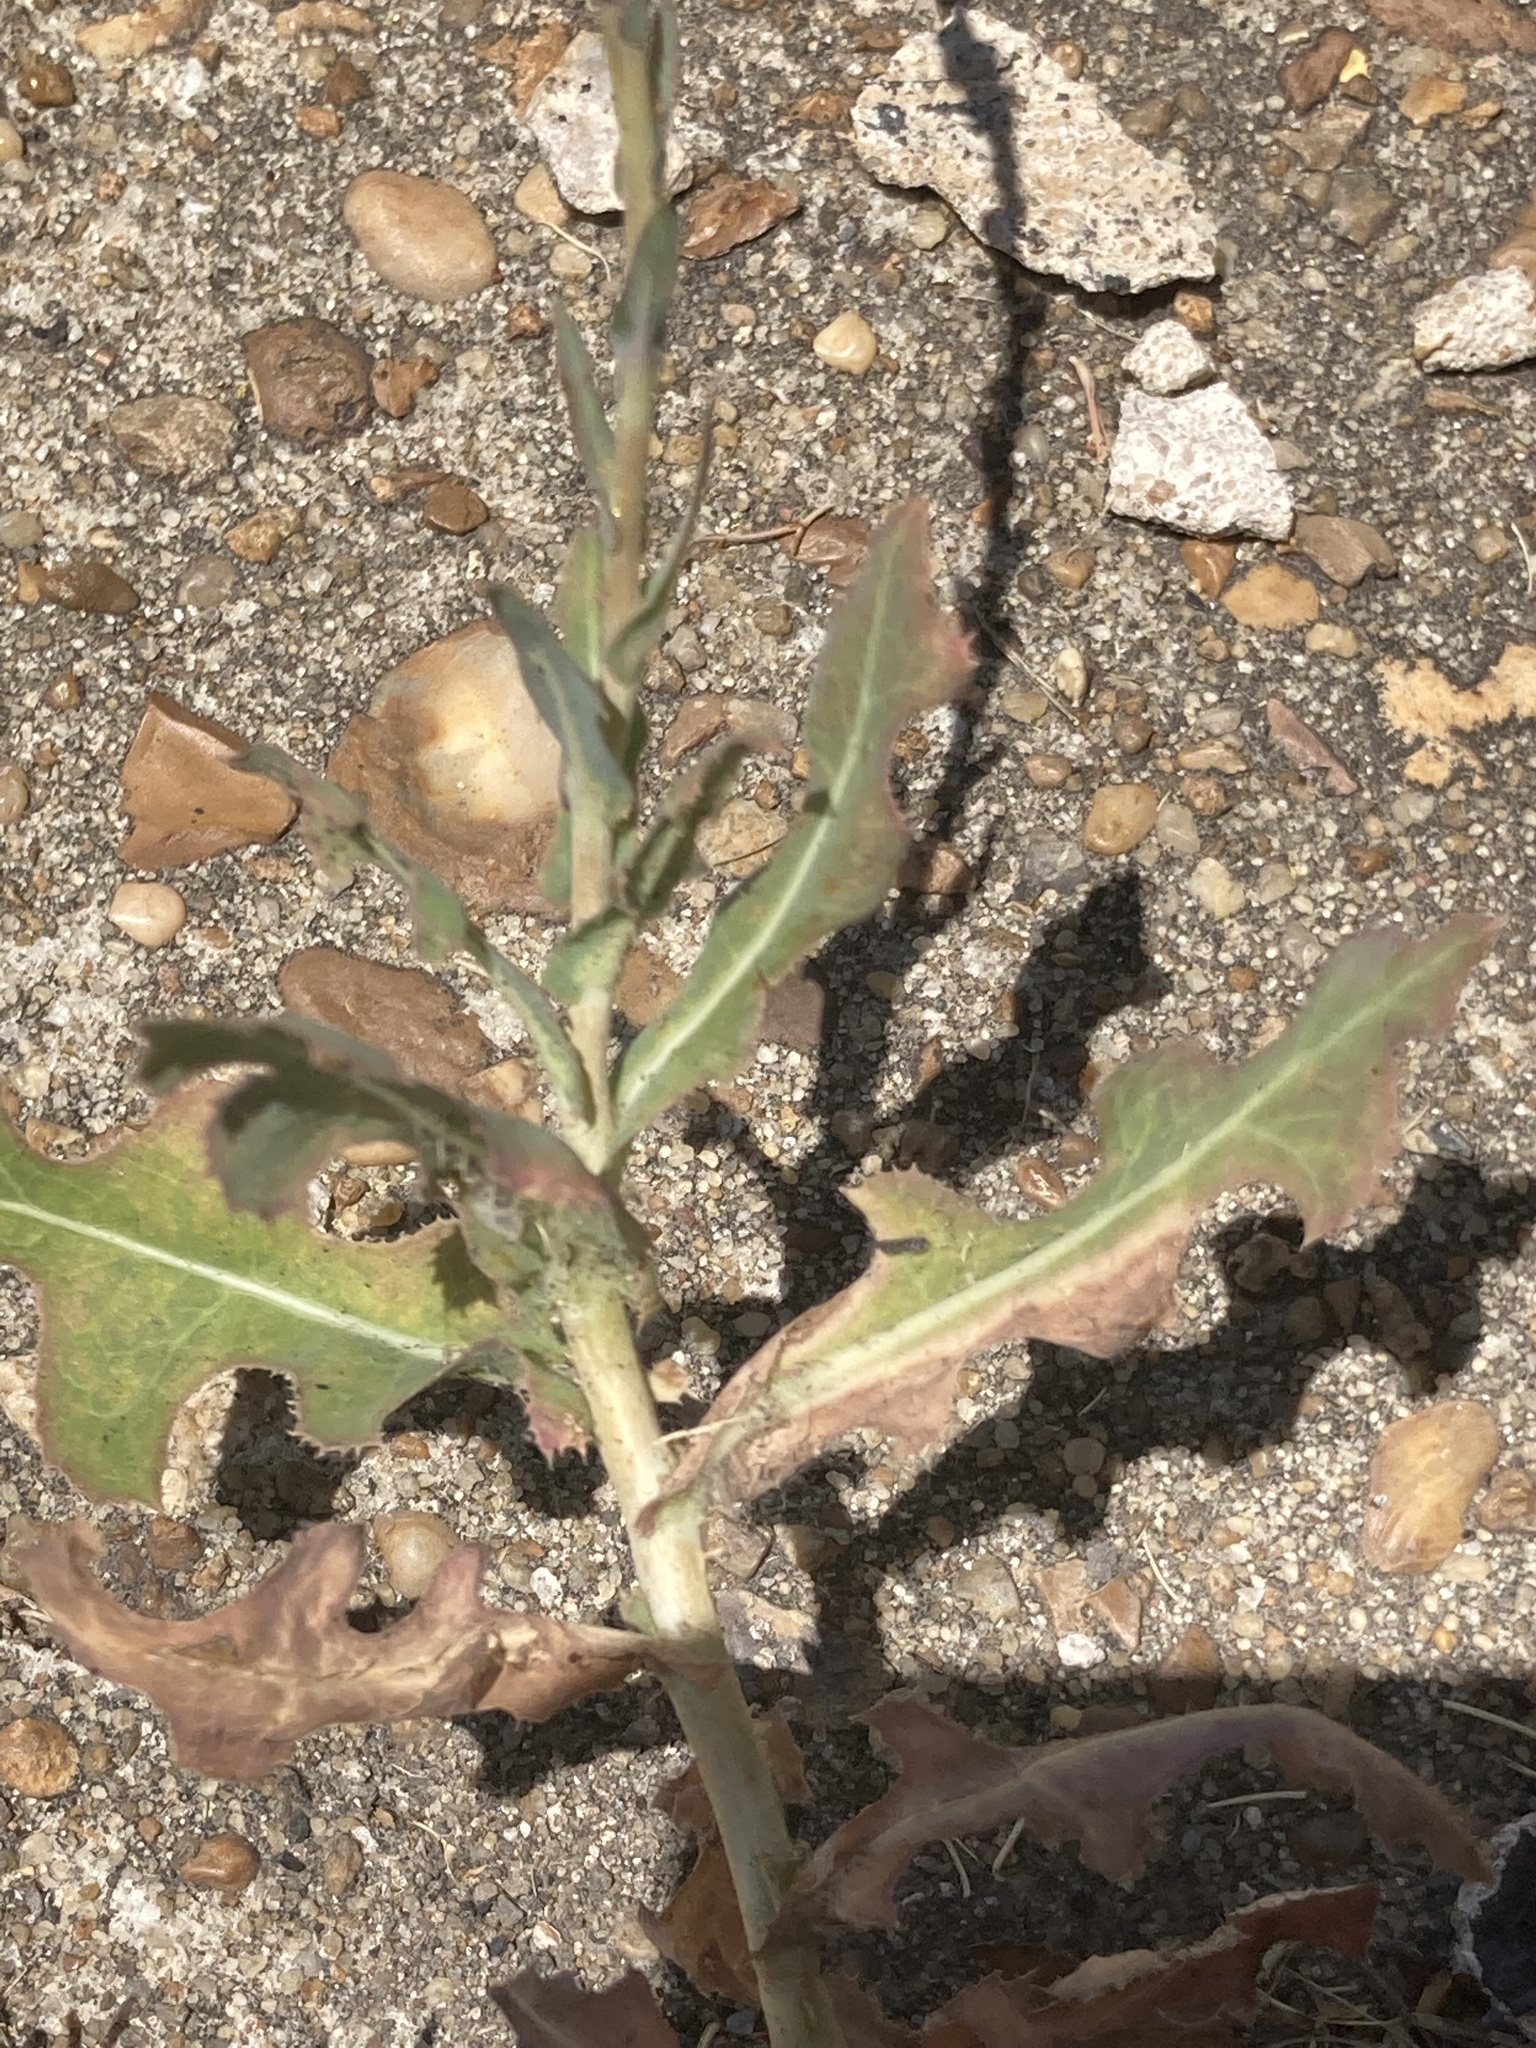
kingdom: Plantae
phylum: Tracheophyta
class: Magnoliopsida
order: Asterales
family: Asteraceae
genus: Lactuca
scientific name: Lactuca serriola
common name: Prickly lettuce
